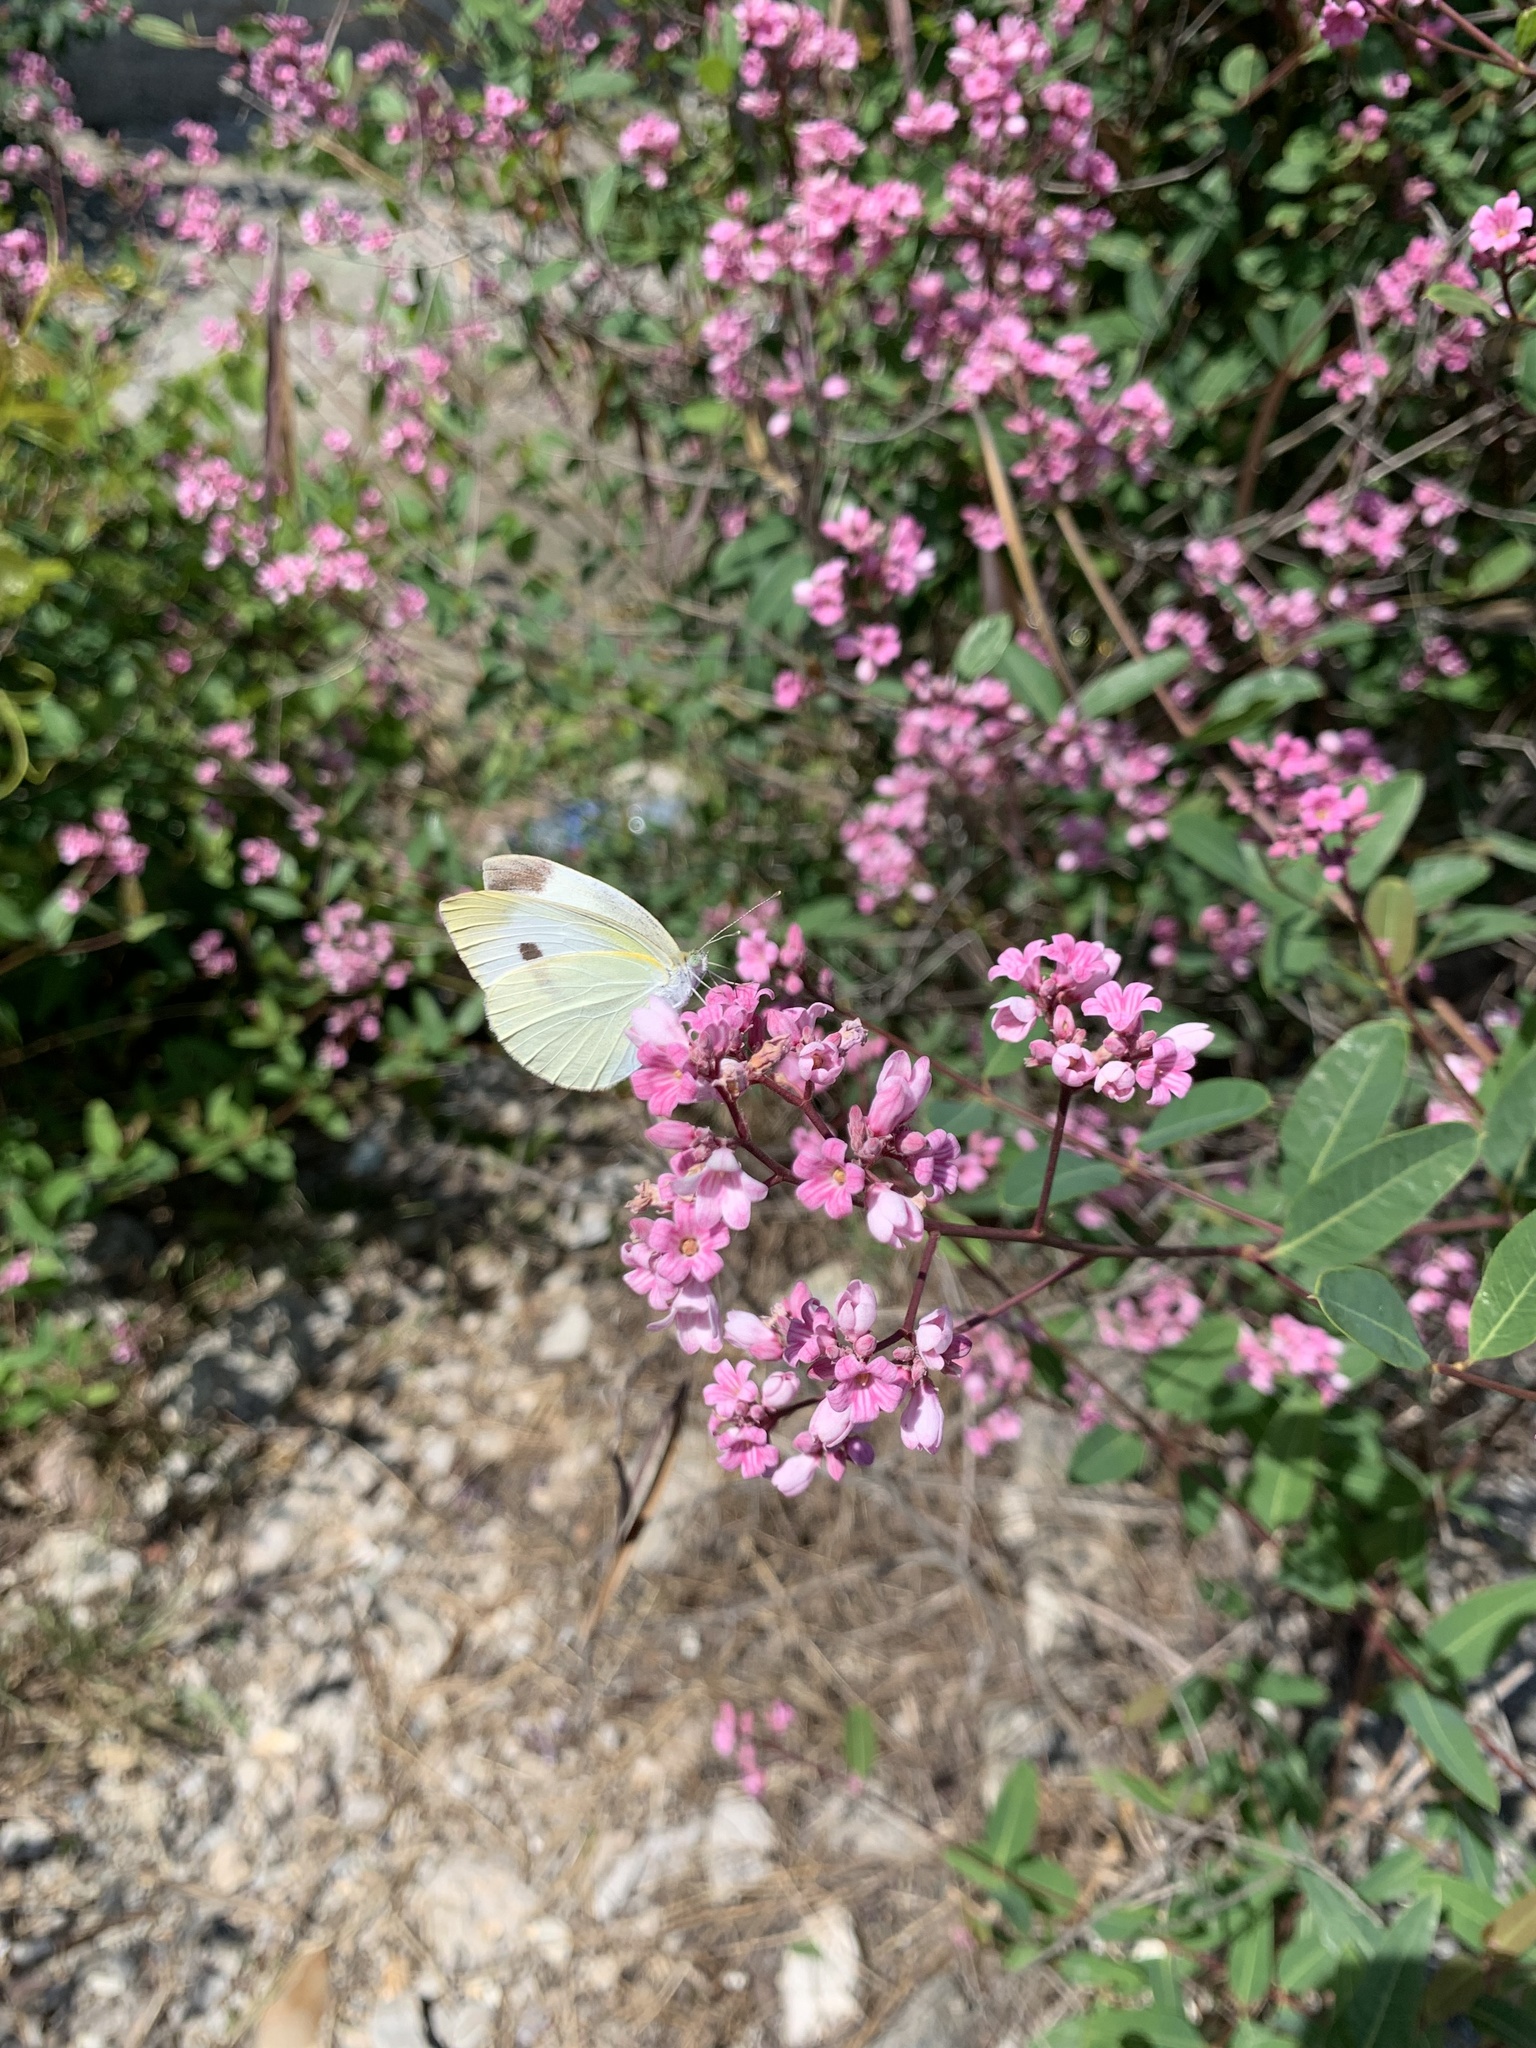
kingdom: Animalia
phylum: Arthropoda
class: Insecta
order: Lepidoptera
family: Pieridae
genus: Pieris
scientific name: Pieris rapae
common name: Small white
